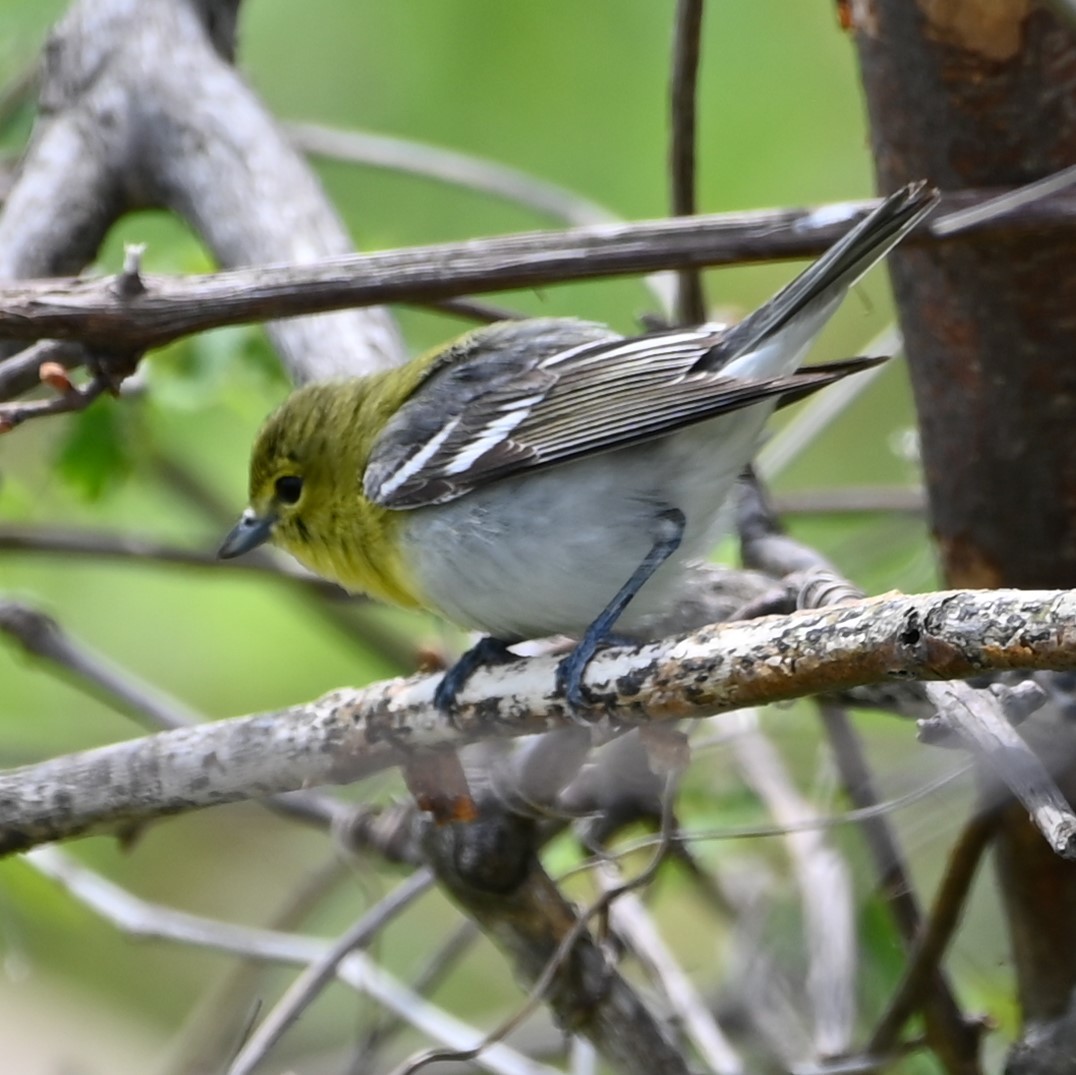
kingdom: Animalia
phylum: Chordata
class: Aves
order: Passeriformes
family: Vireonidae
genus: Vireo
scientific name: Vireo flavifrons
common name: Yellow-throated vireo
